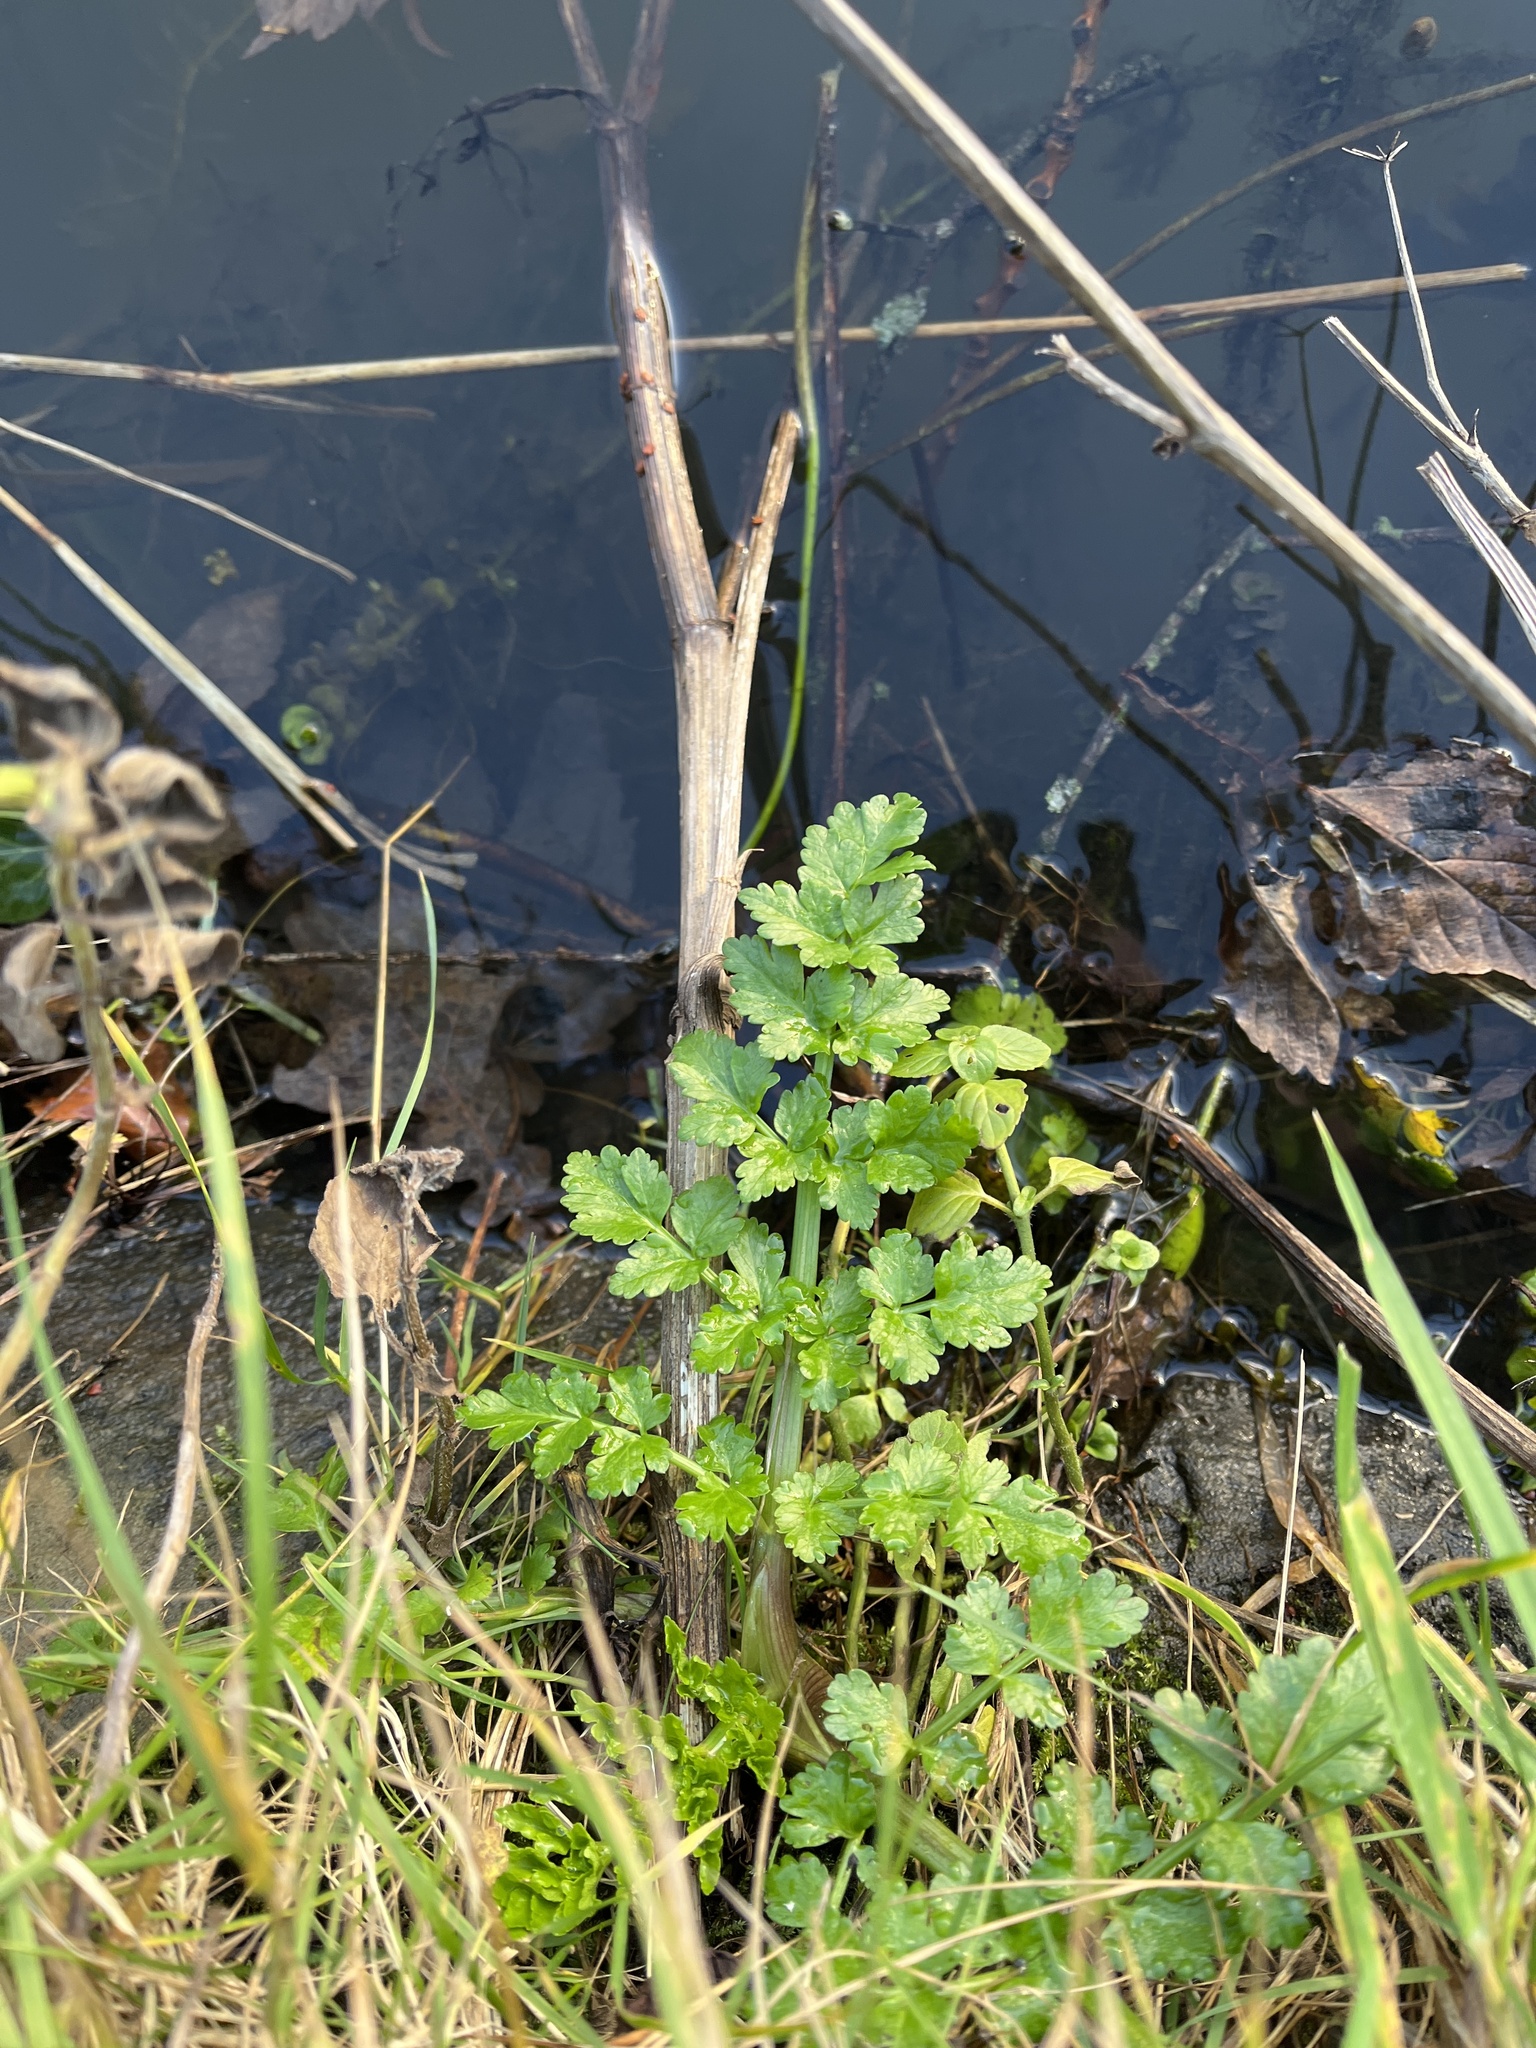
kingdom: Plantae
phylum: Tracheophyta
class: Magnoliopsida
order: Apiales
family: Apiaceae
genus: Oenanthe
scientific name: Oenanthe crocata
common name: Hemlock water-dropwort
